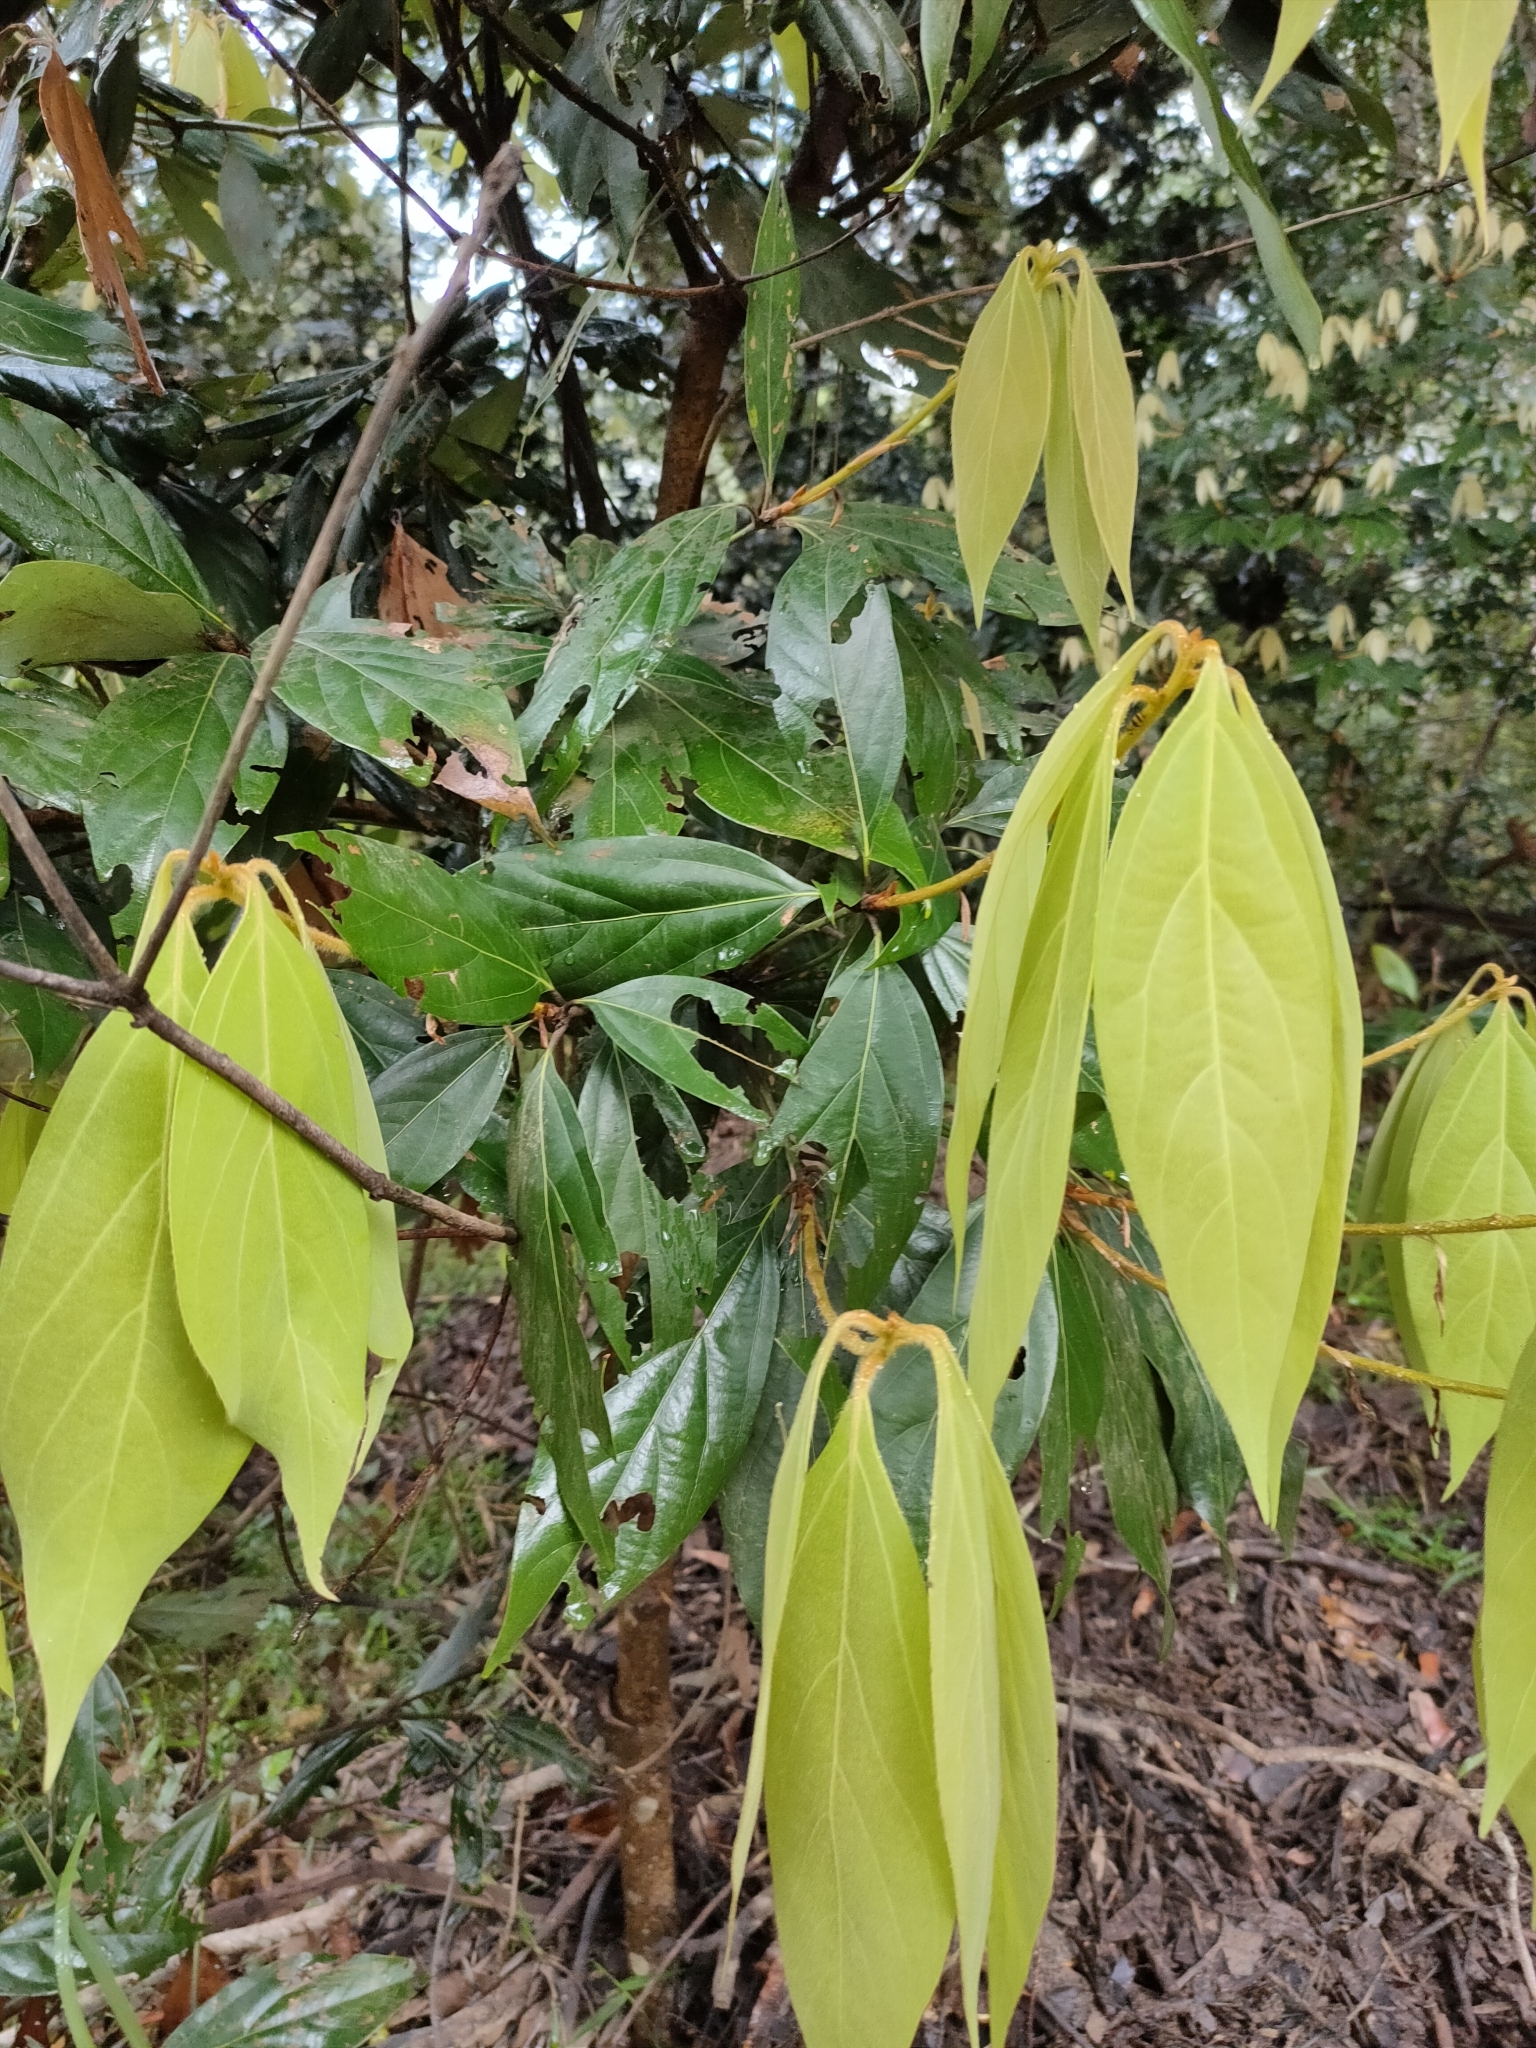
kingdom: Plantae
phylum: Tracheophyta
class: Magnoliopsida
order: Laurales
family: Lauraceae
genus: Neolitsea
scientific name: Neolitsea dealbata
